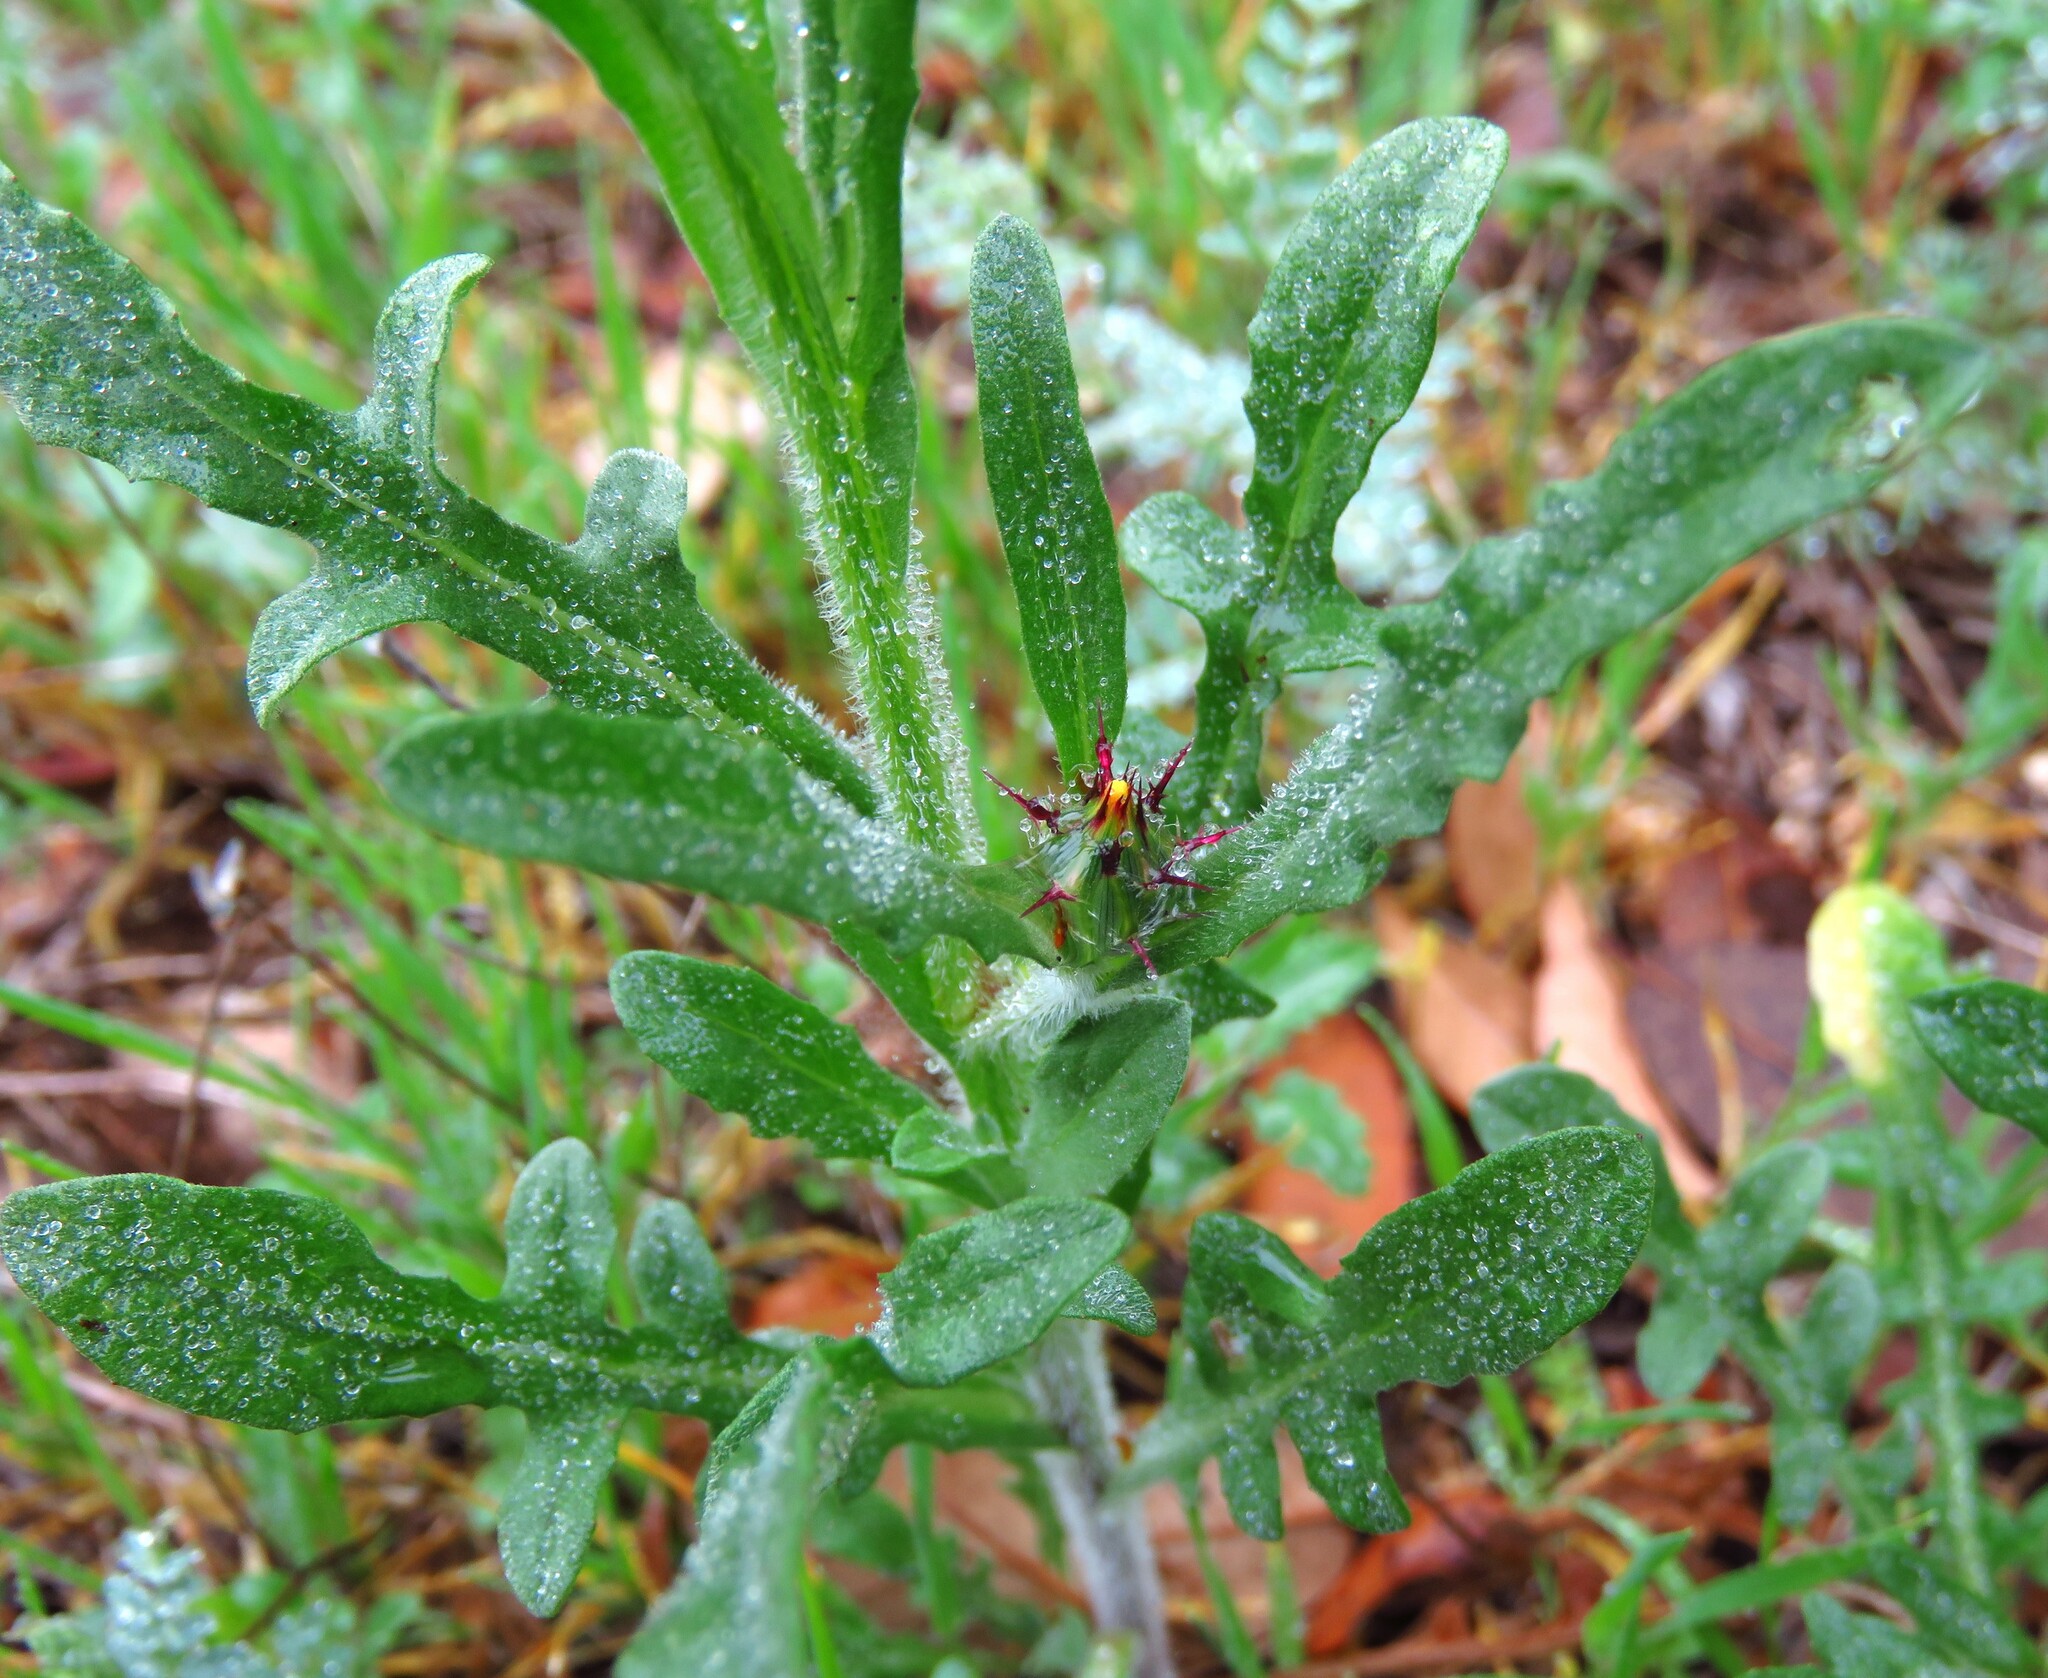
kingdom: Plantae
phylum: Tracheophyta
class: Magnoliopsida
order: Asterales
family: Asteraceae
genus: Centaurea
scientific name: Centaurea melitensis
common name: Maltese star-thistle
